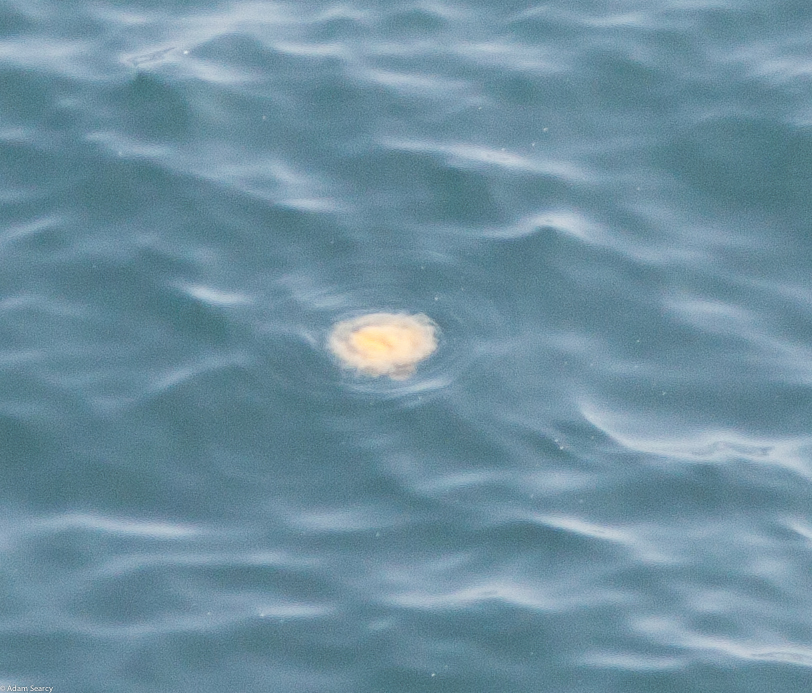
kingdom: Animalia
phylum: Cnidaria
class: Scyphozoa
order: Semaeostomeae
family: Phacellophoridae
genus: Phacellophora
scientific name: Phacellophora camtschatica
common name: Fried-egg jellyfish
